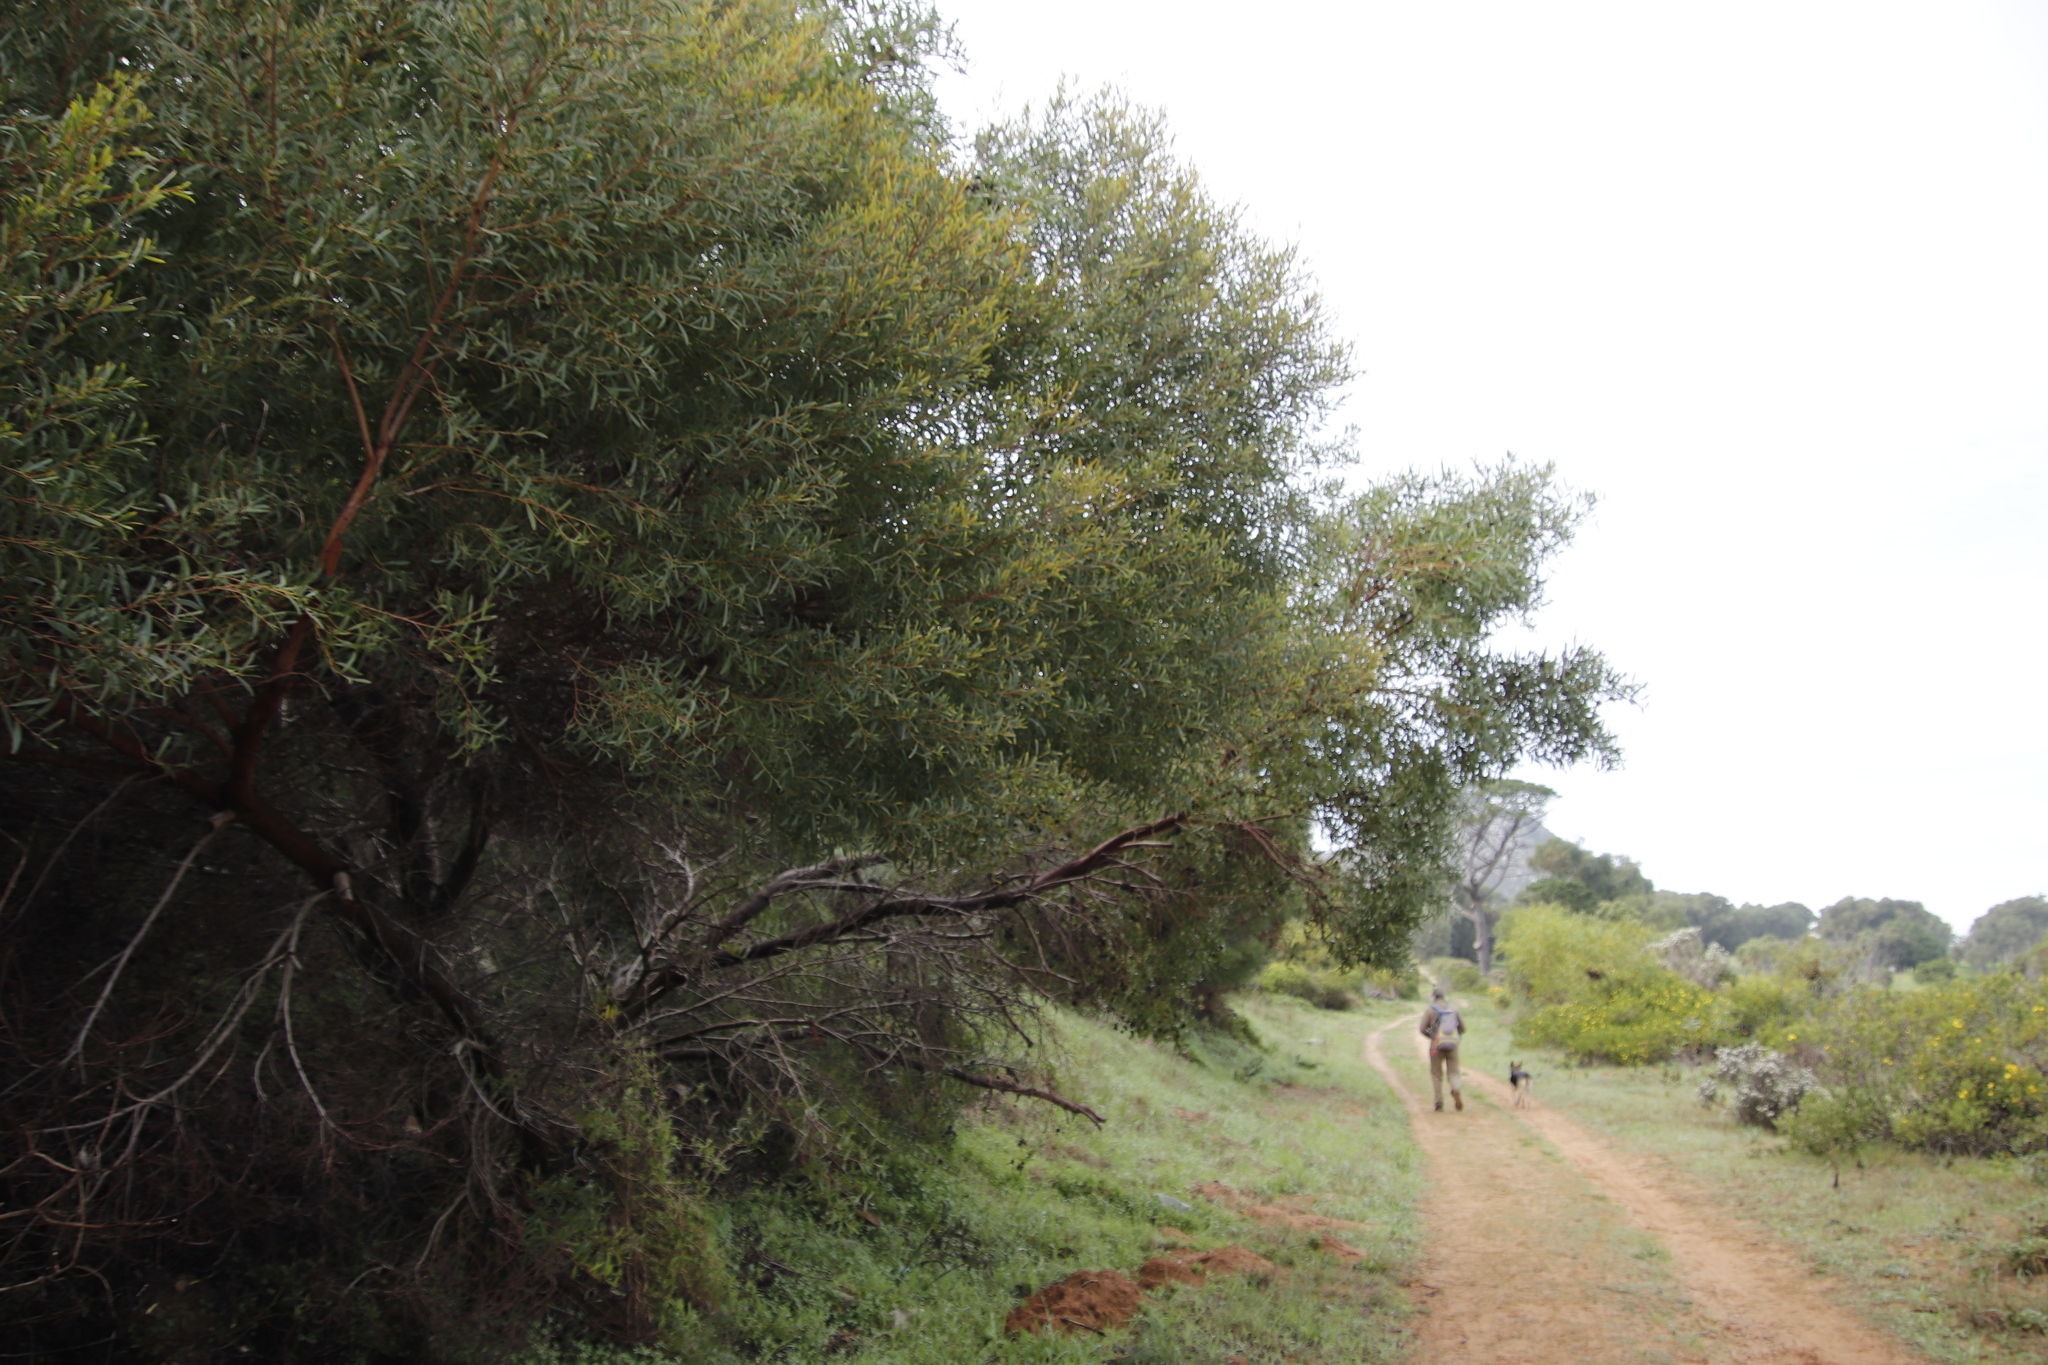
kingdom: Plantae
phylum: Tracheophyta
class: Magnoliopsida
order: Fabales
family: Fabaceae
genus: Acacia
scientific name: Acacia cyclops
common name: Coastal wattle
